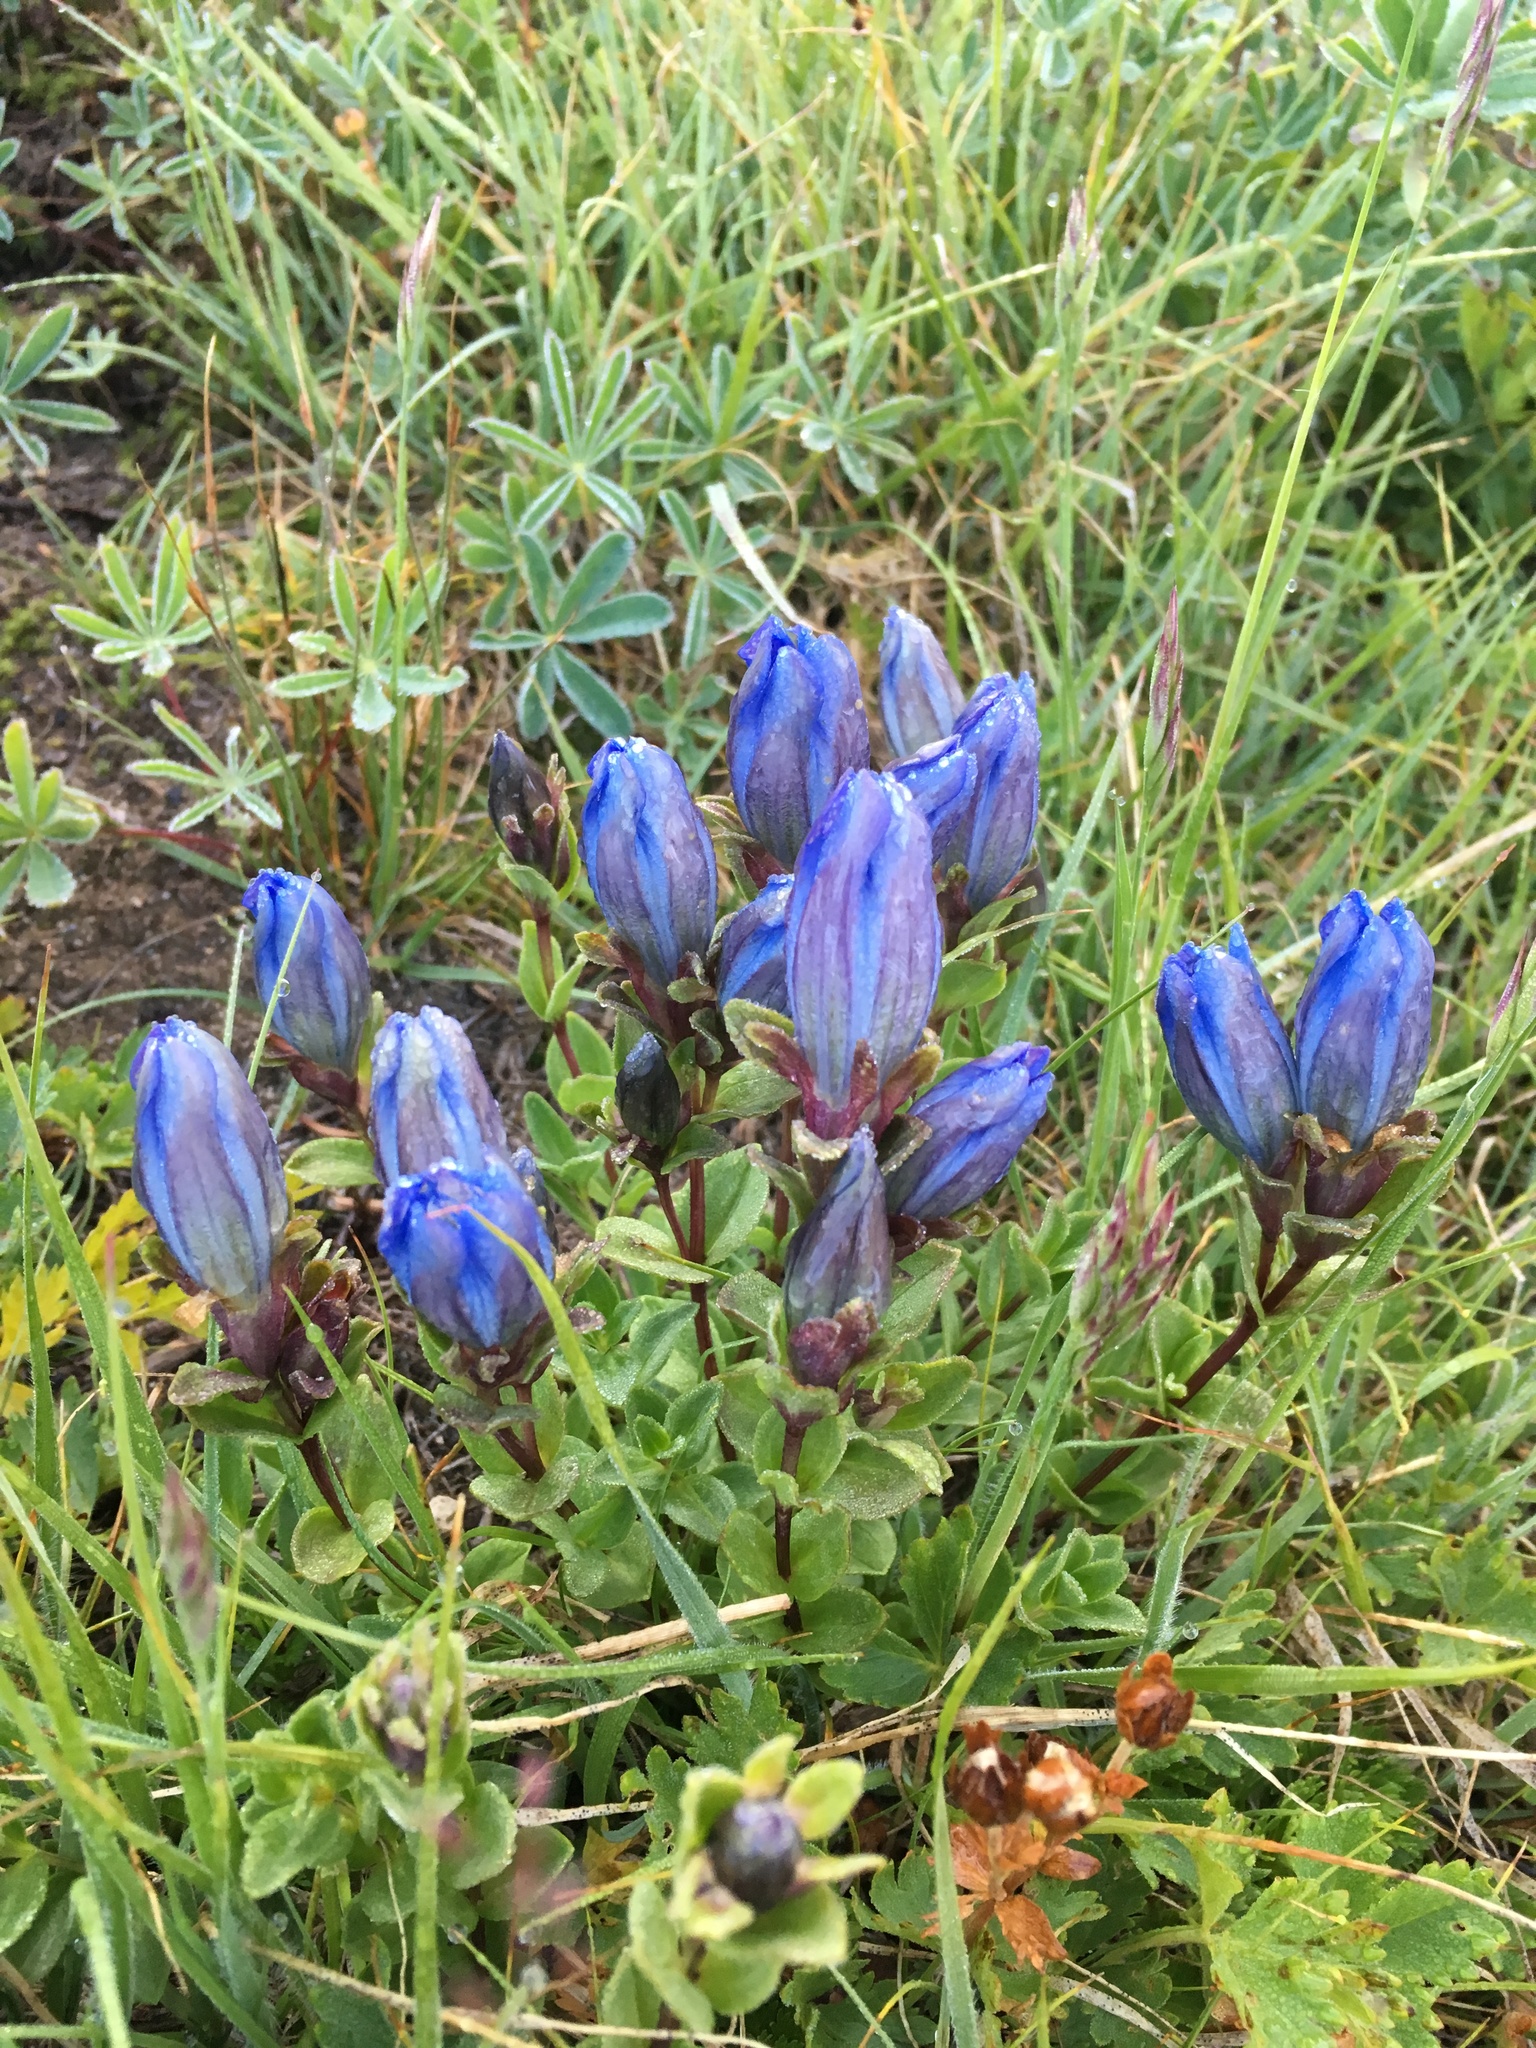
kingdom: Plantae
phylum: Tracheophyta
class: Magnoliopsida
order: Gentianales
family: Gentianaceae
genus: Gentiana
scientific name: Gentiana calycosa
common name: Rainier pleated gentian
